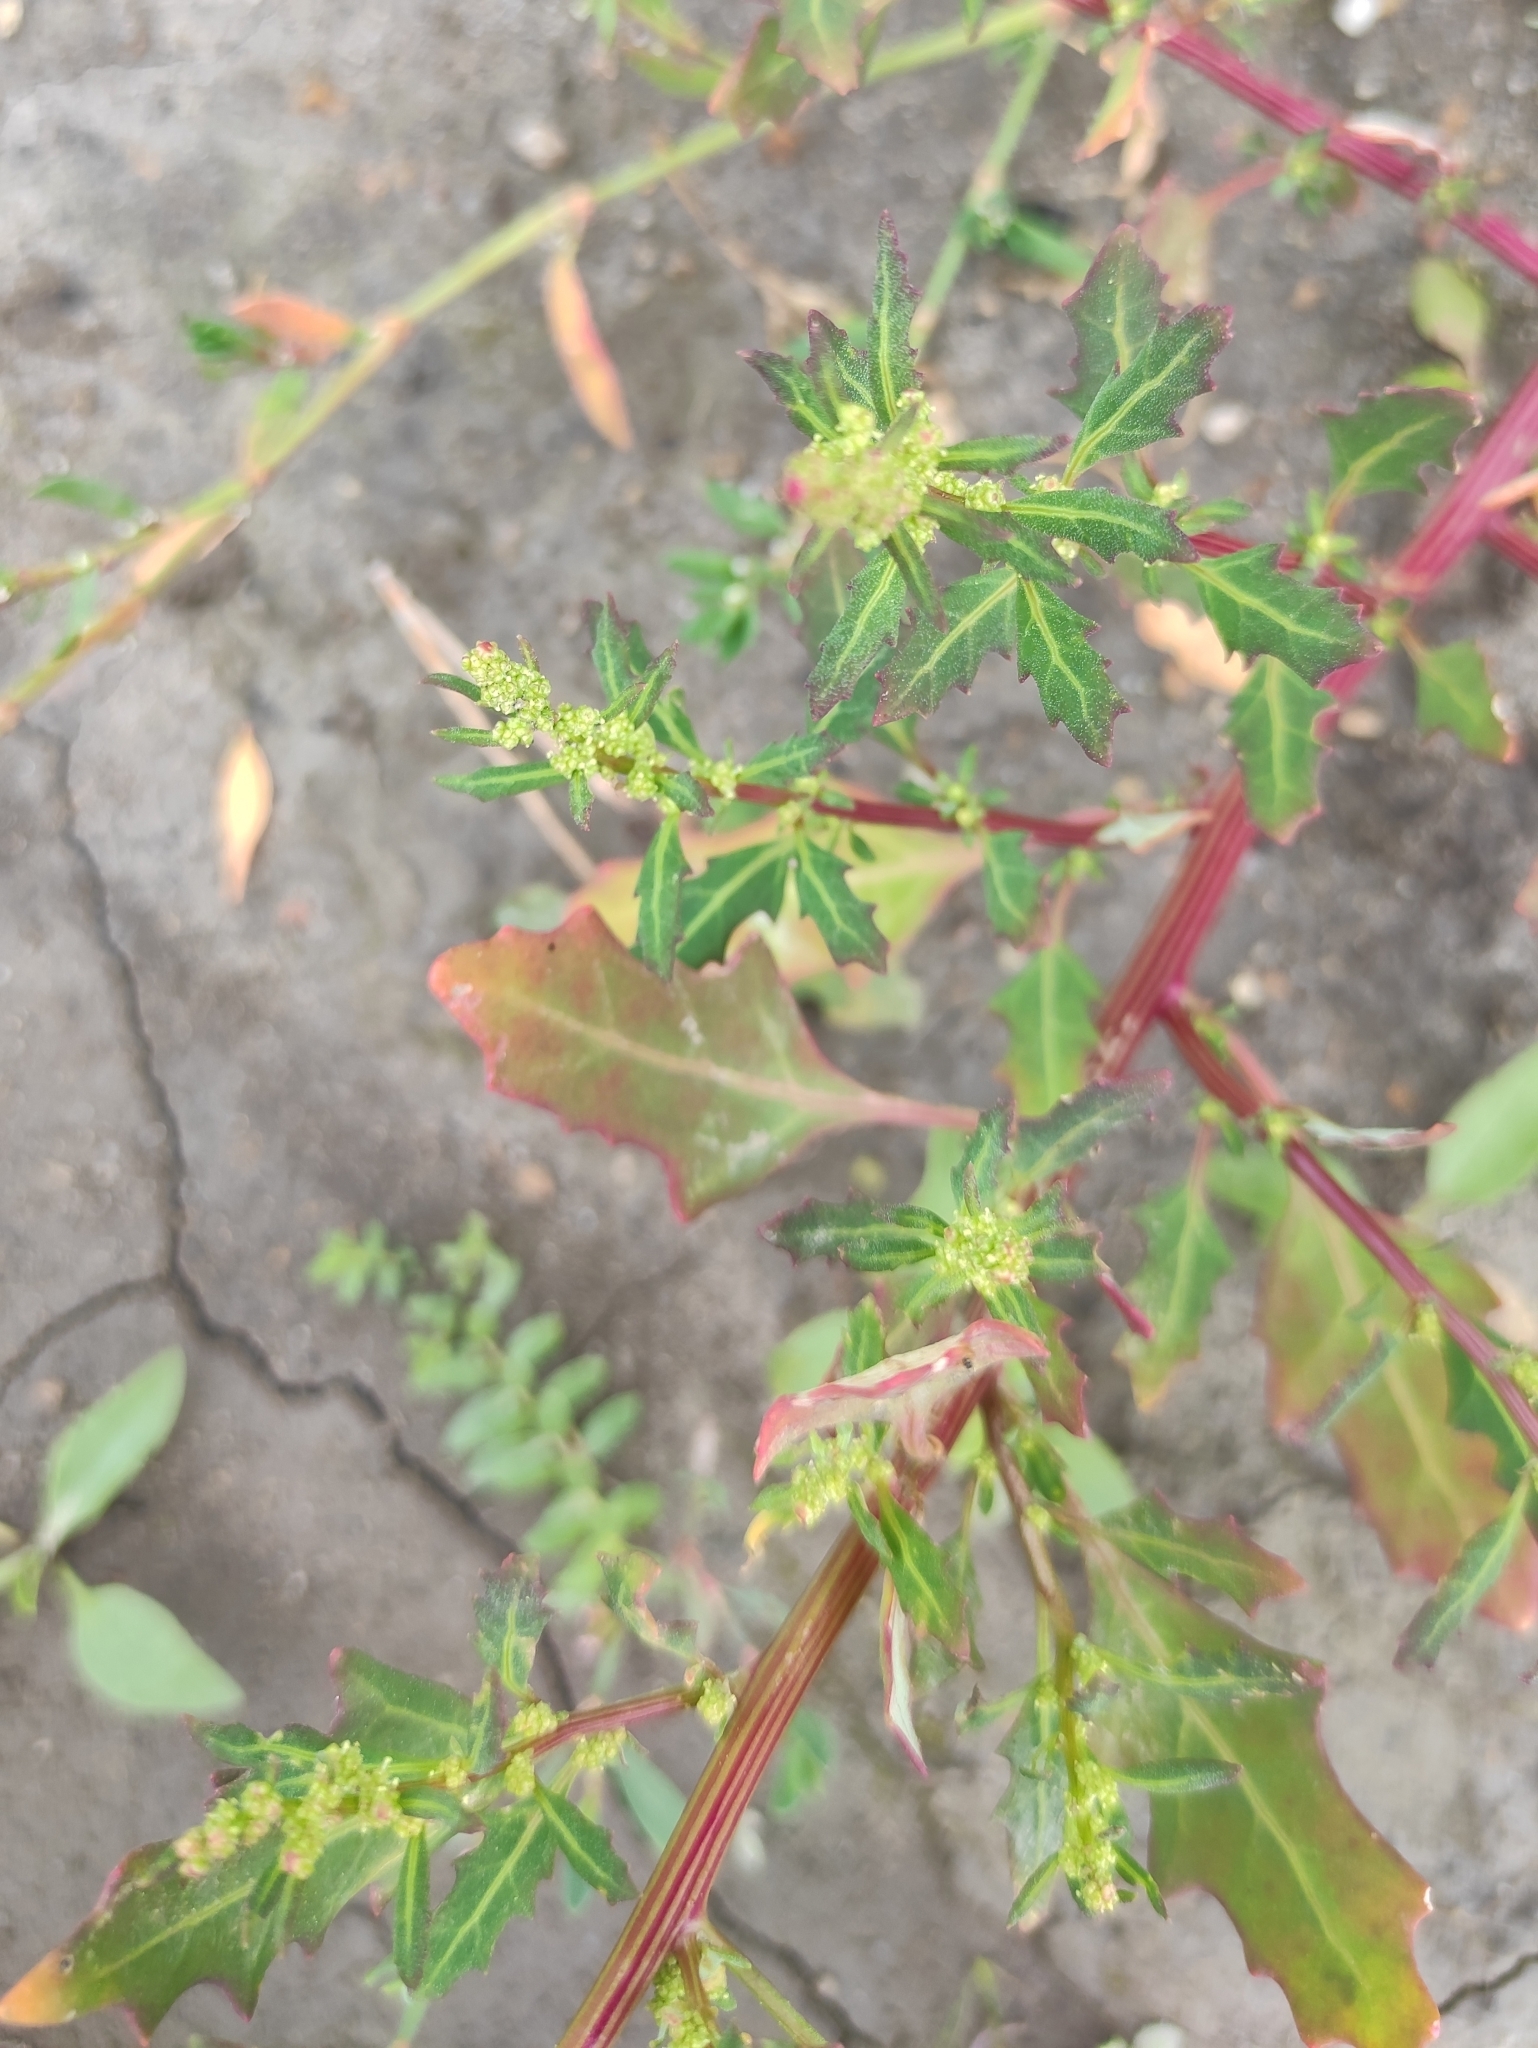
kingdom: Plantae
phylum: Tracheophyta
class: Magnoliopsida
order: Caryophyllales
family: Amaranthaceae
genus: Oxybasis
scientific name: Oxybasis glauca
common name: Glaucous goosefoot
